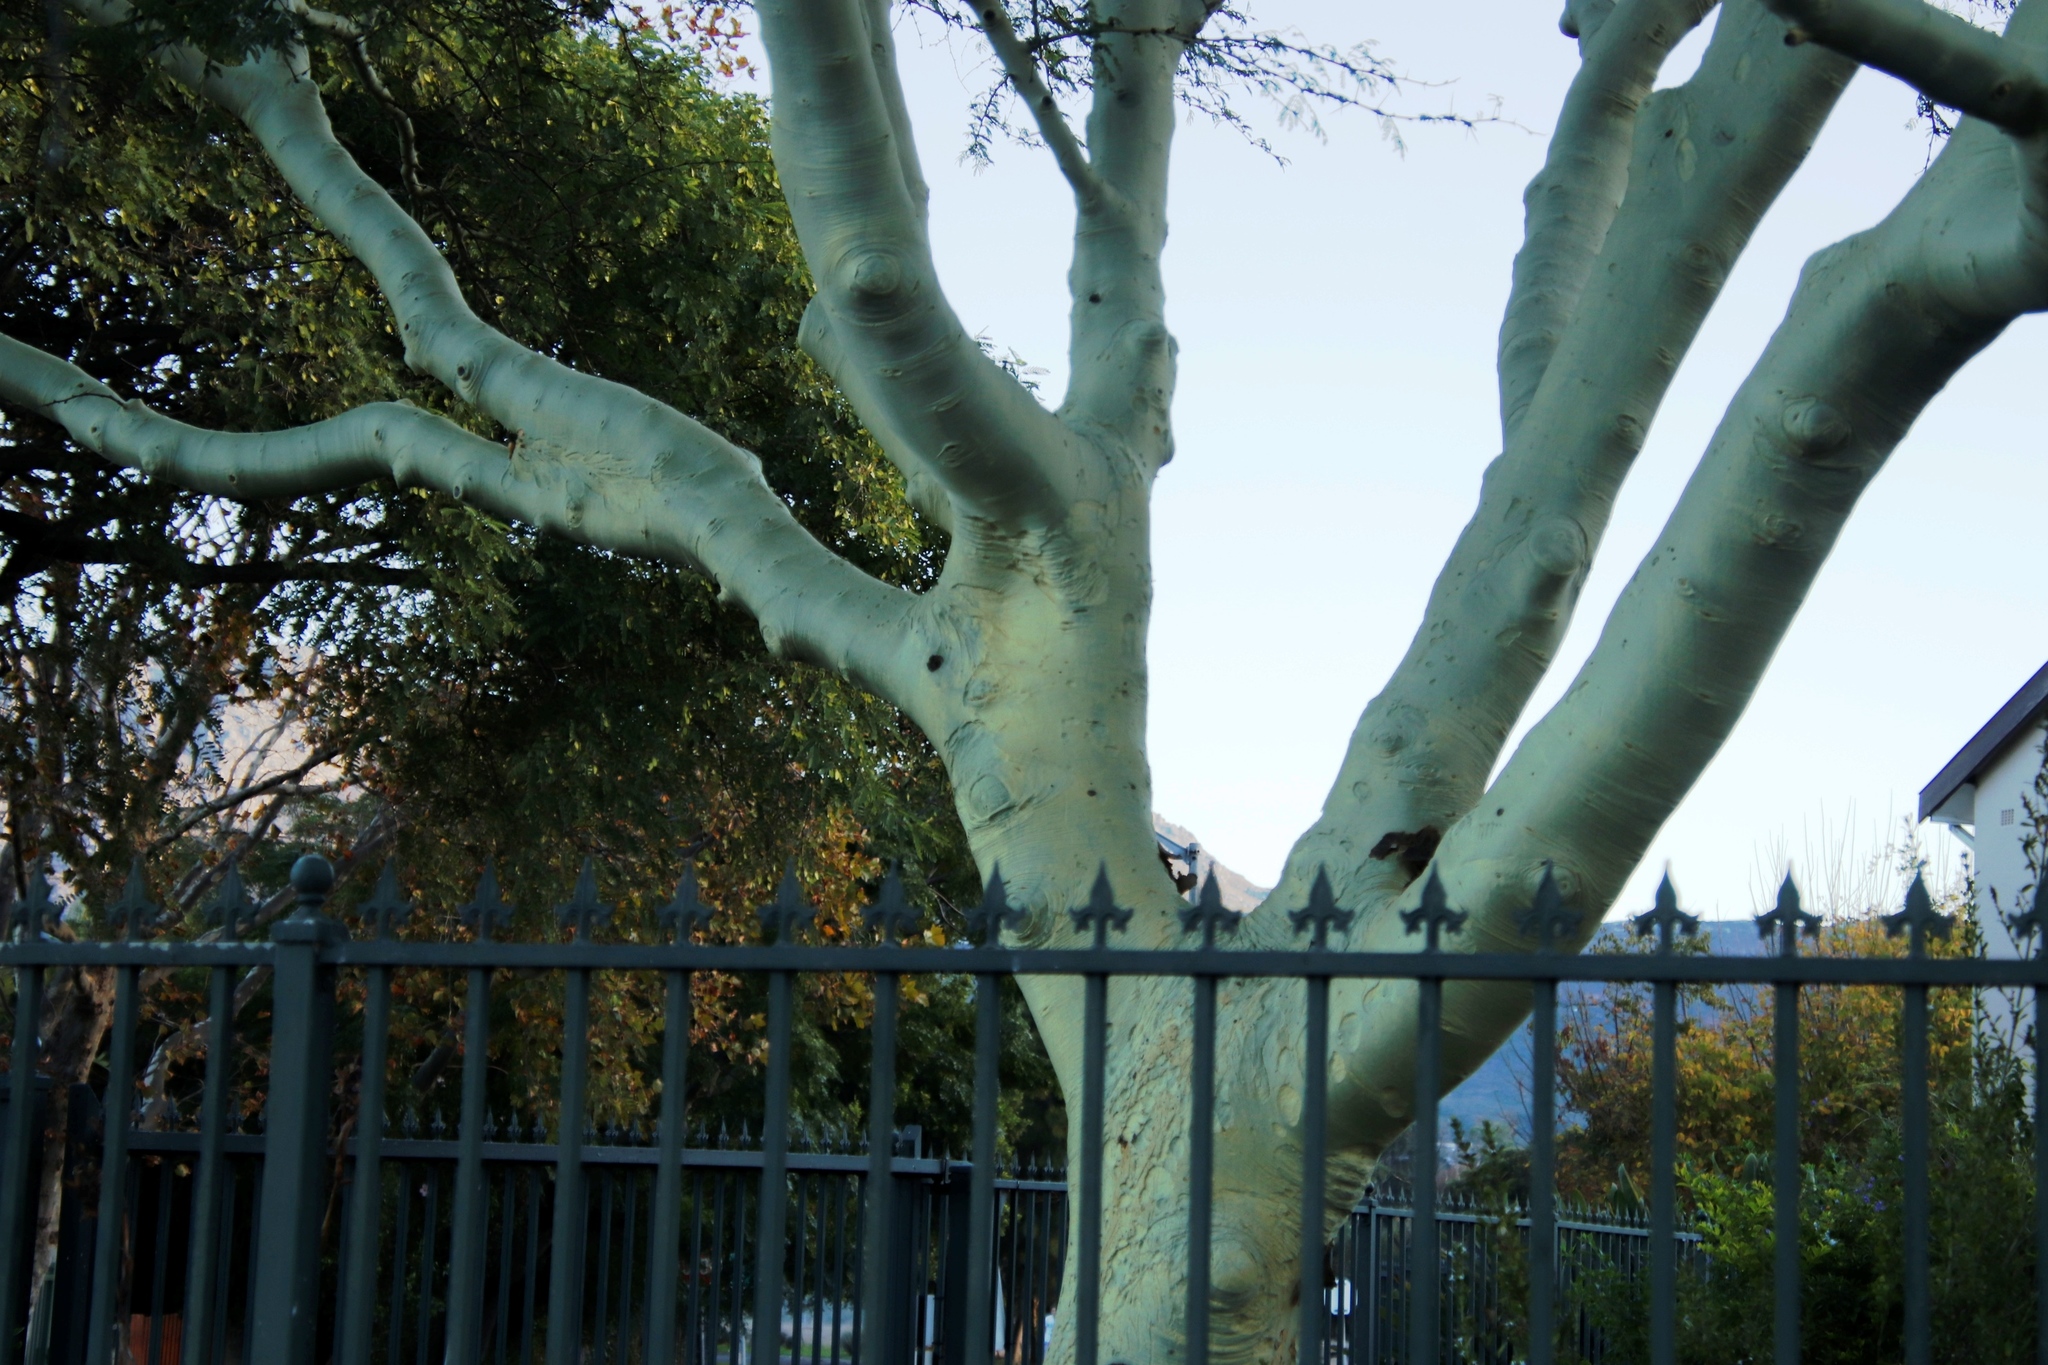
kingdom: Plantae
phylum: Tracheophyta
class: Magnoliopsida
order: Fabales
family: Fabaceae
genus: Vachellia
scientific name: Vachellia xanthophloea
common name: Fever tree
